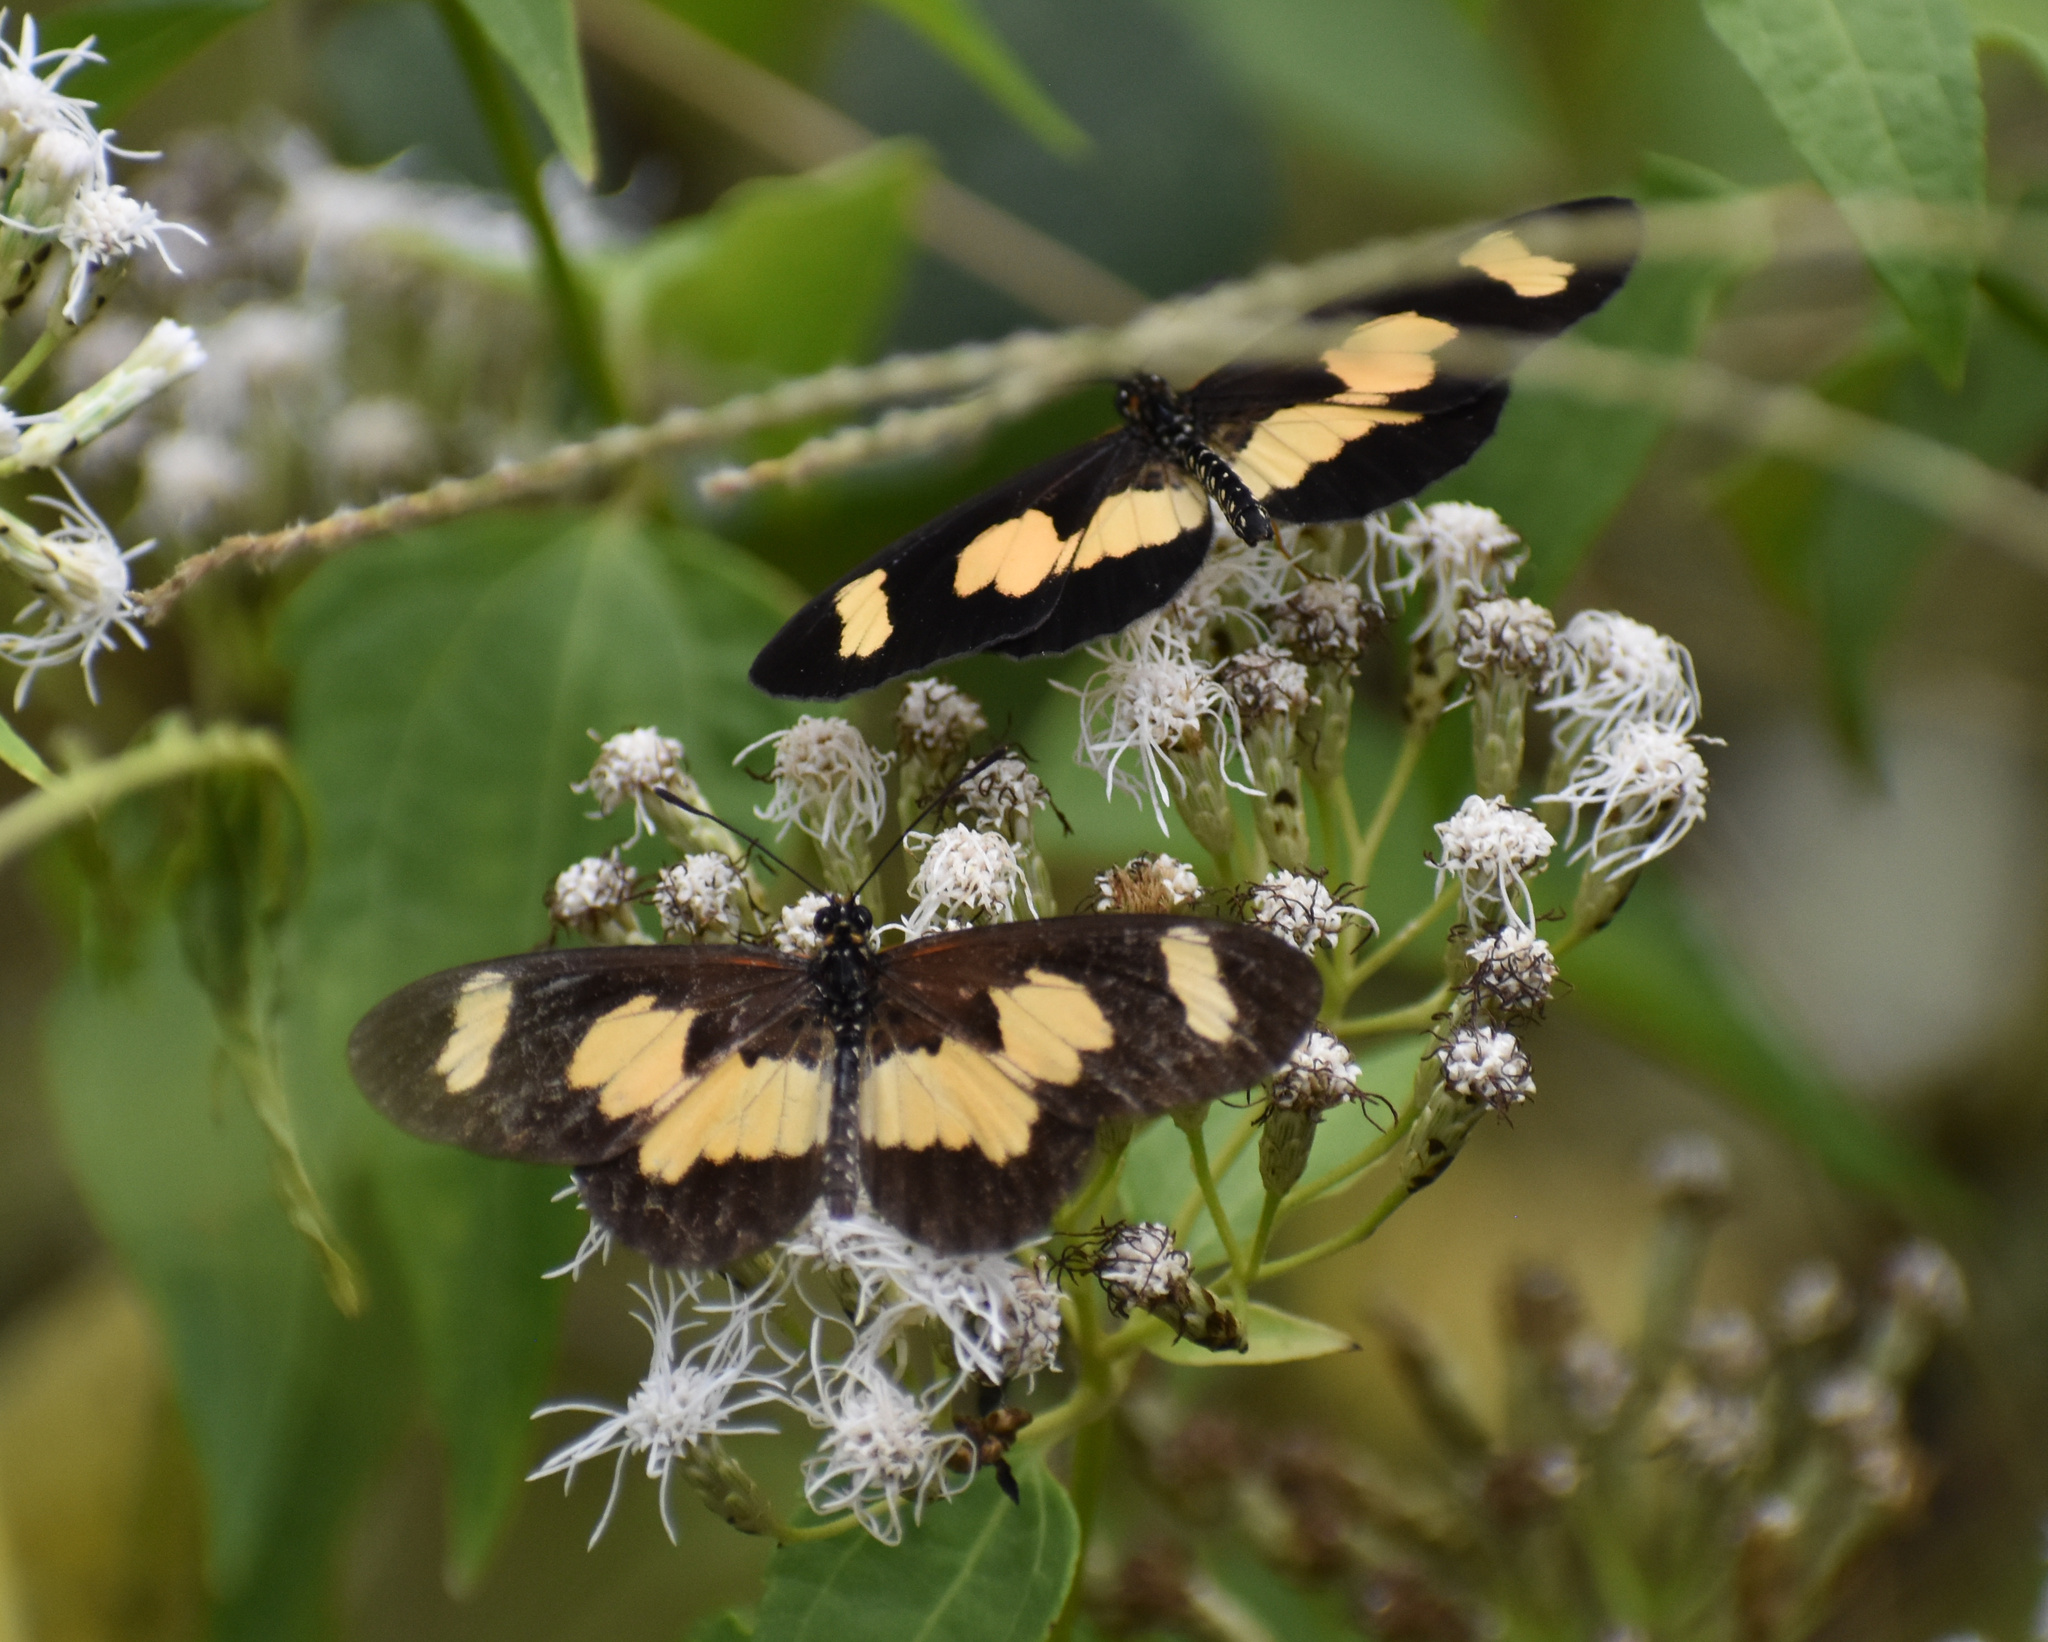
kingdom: Animalia
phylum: Arthropoda
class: Insecta
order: Lepidoptera
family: Nymphalidae
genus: Acraea
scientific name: Acraea cabira
